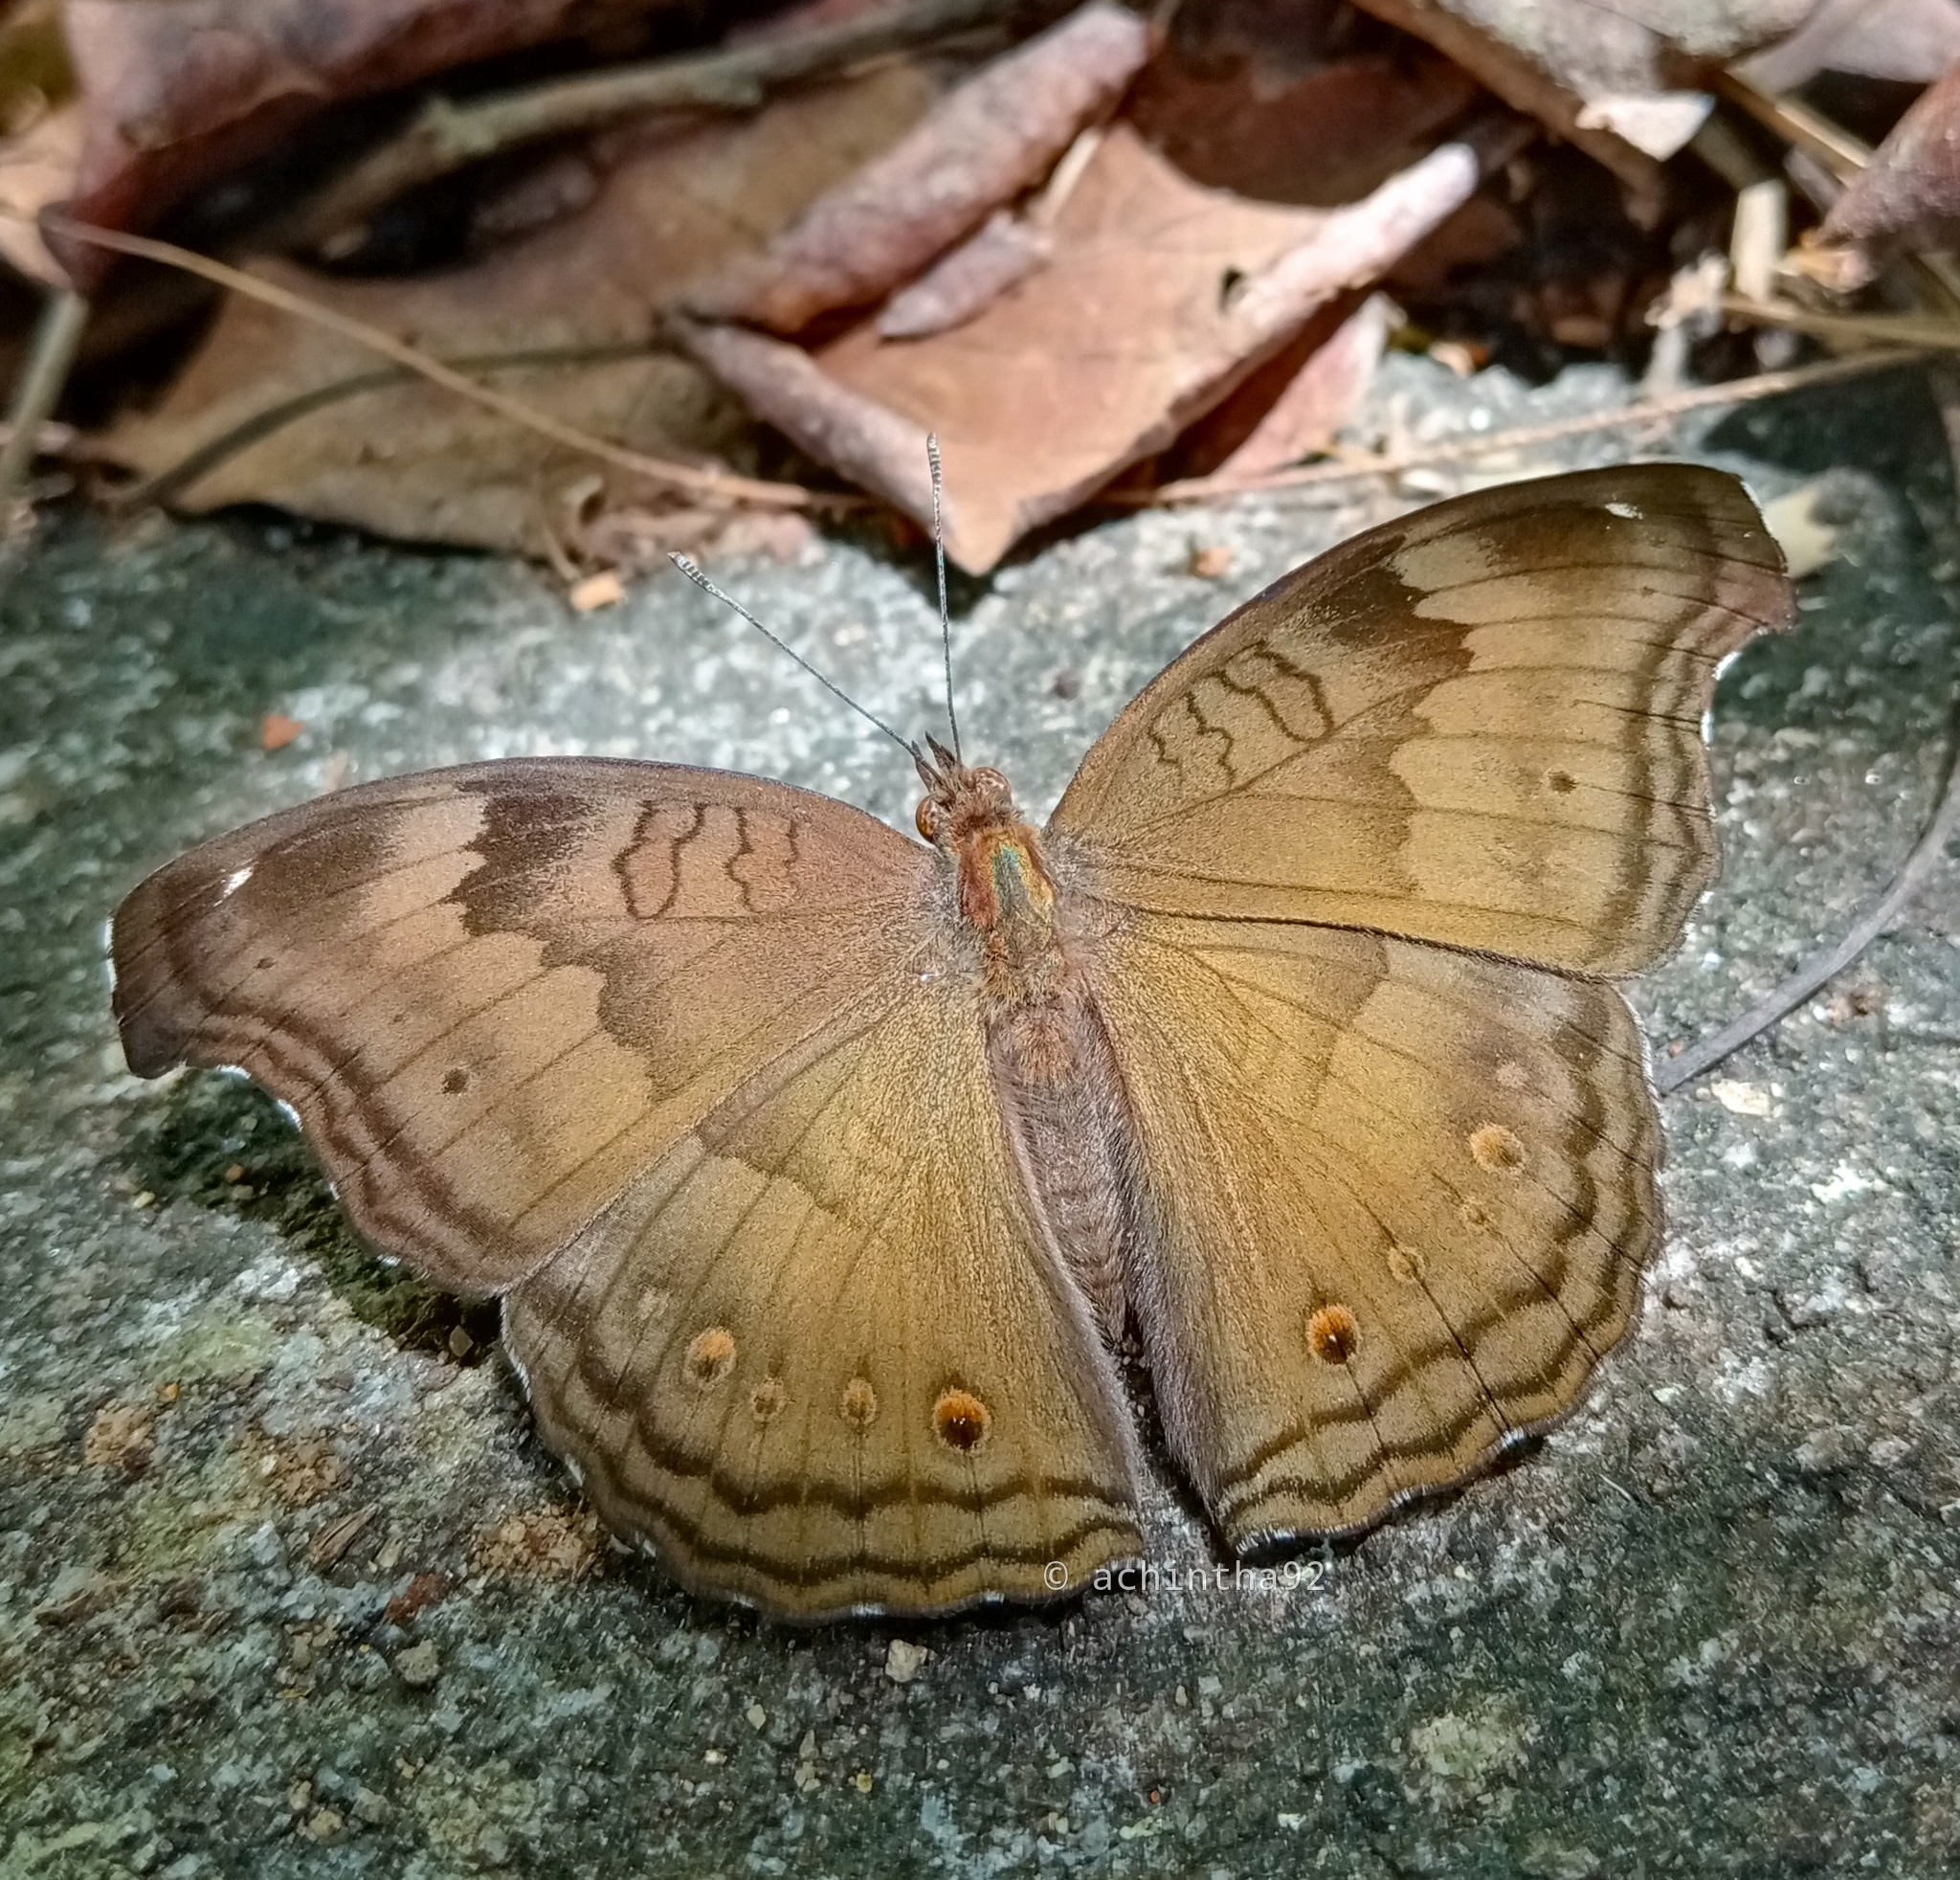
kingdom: Animalia
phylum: Arthropoda
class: Insecta
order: Lepidoptera
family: Nymphalidae
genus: Junonia
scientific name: Junonia iphita
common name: Chocolate pansy
